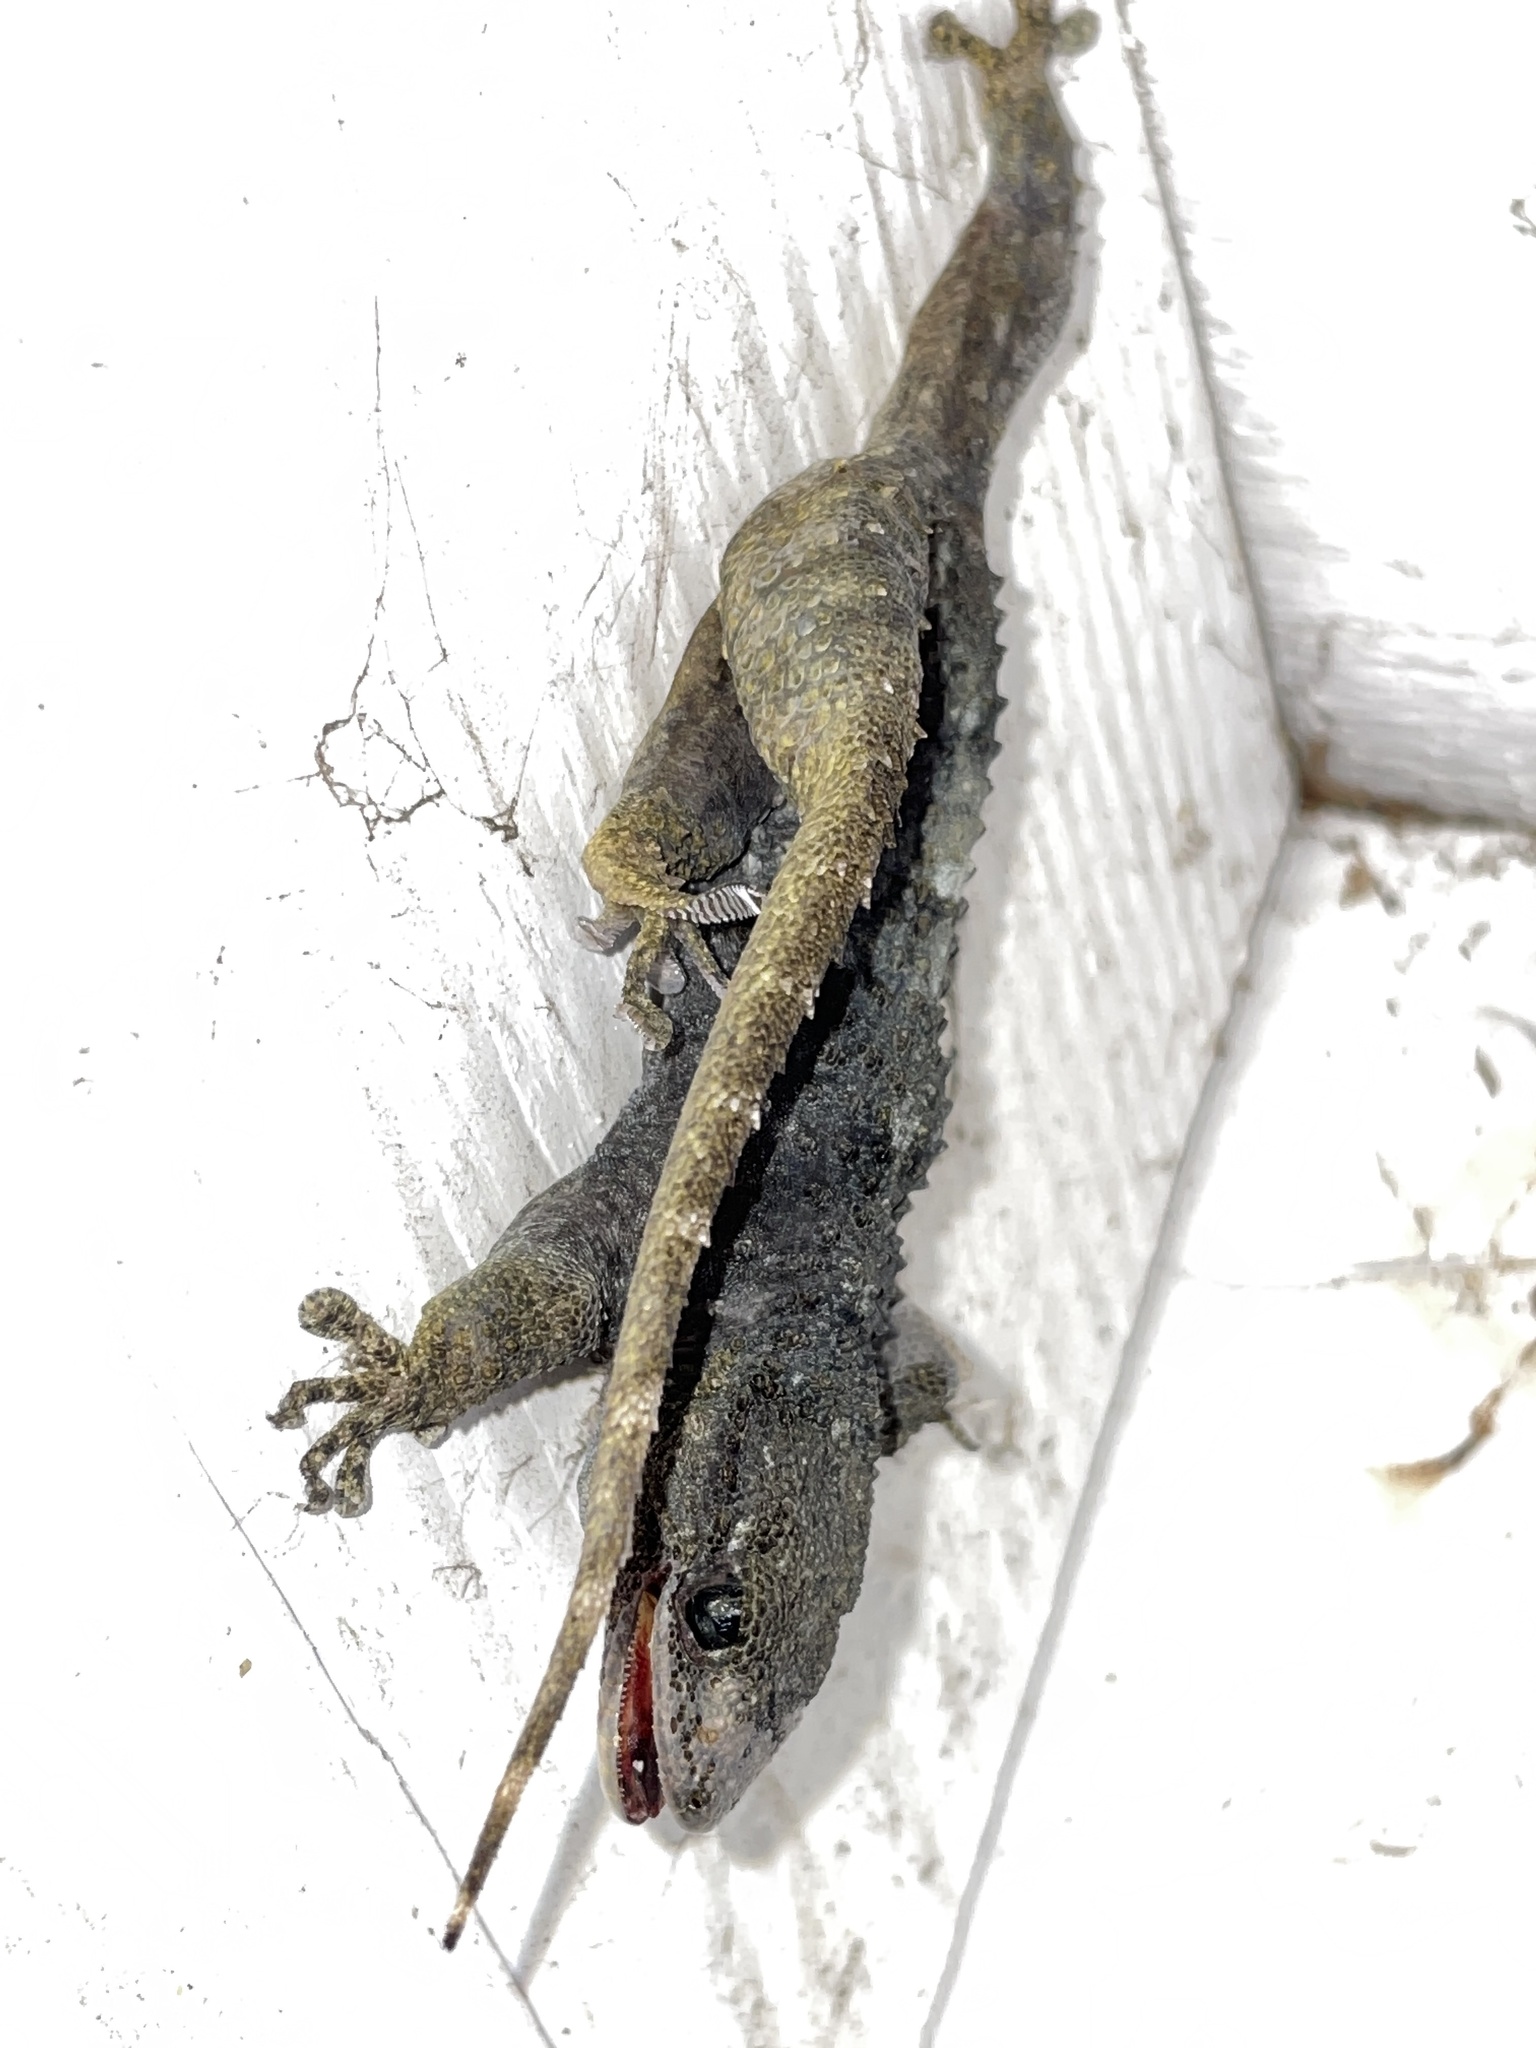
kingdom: Animalia
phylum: Chordata
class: Squamata
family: Phyllodactylidae
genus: Tarentola
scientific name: Tarentola mauritanica
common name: Moorish gecko
